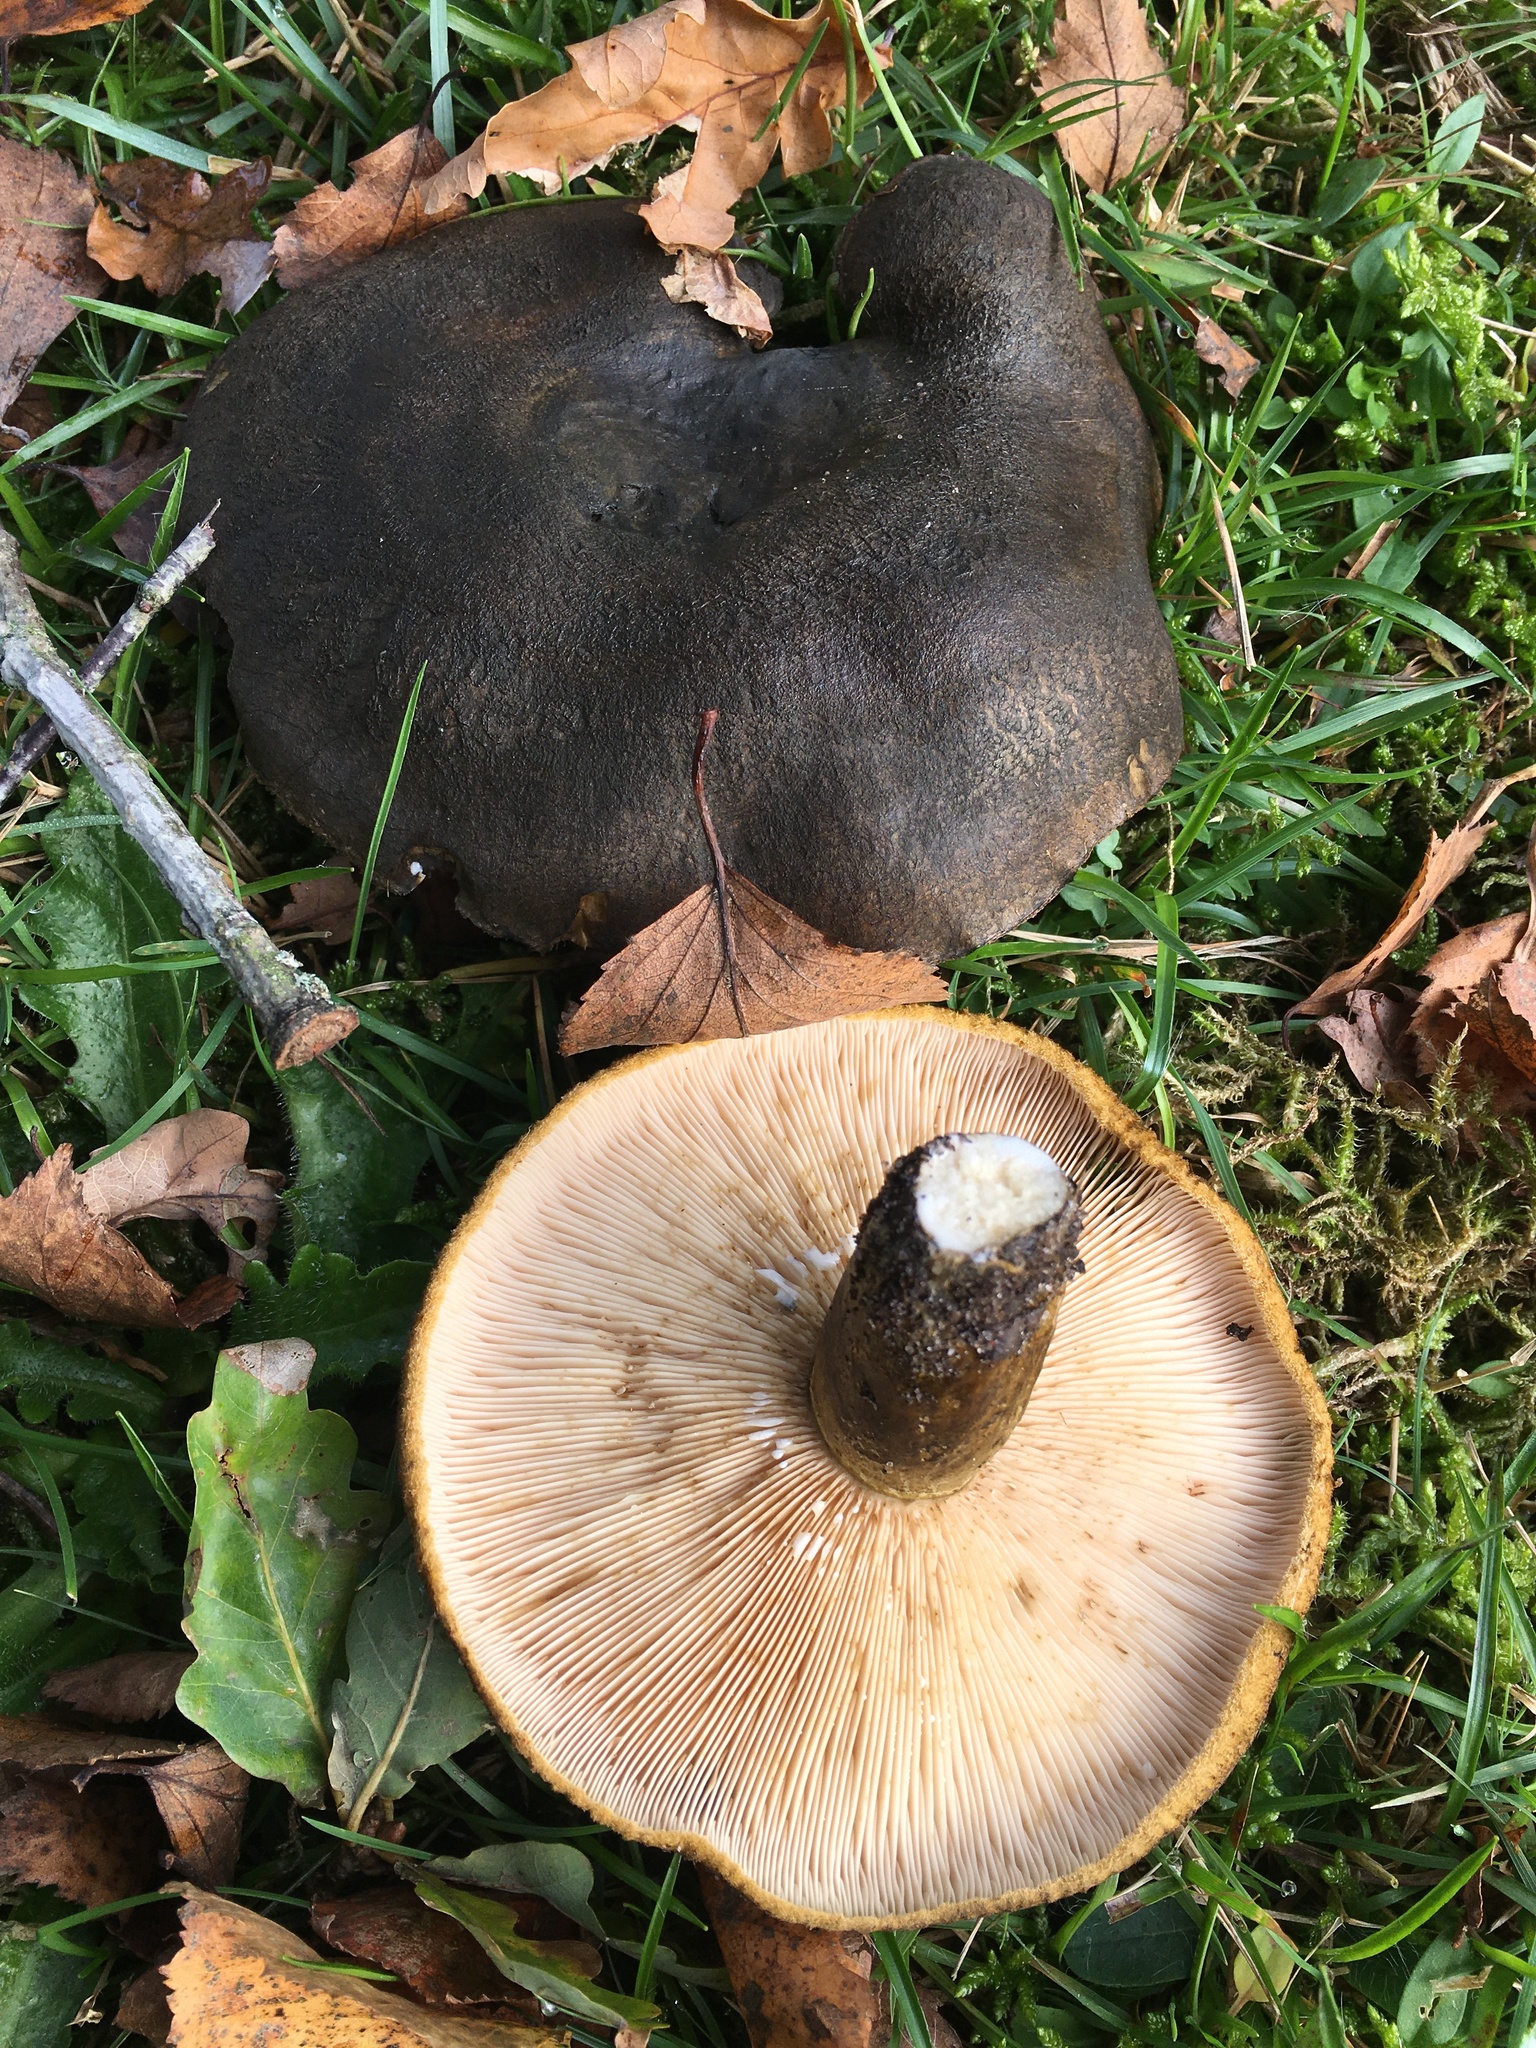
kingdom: Fungi
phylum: Basidiomycota
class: Agaricomycetes
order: Russulales
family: Russulaceae
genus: Lactarius
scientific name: Lactarius turpis
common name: Ugly milk-cap
